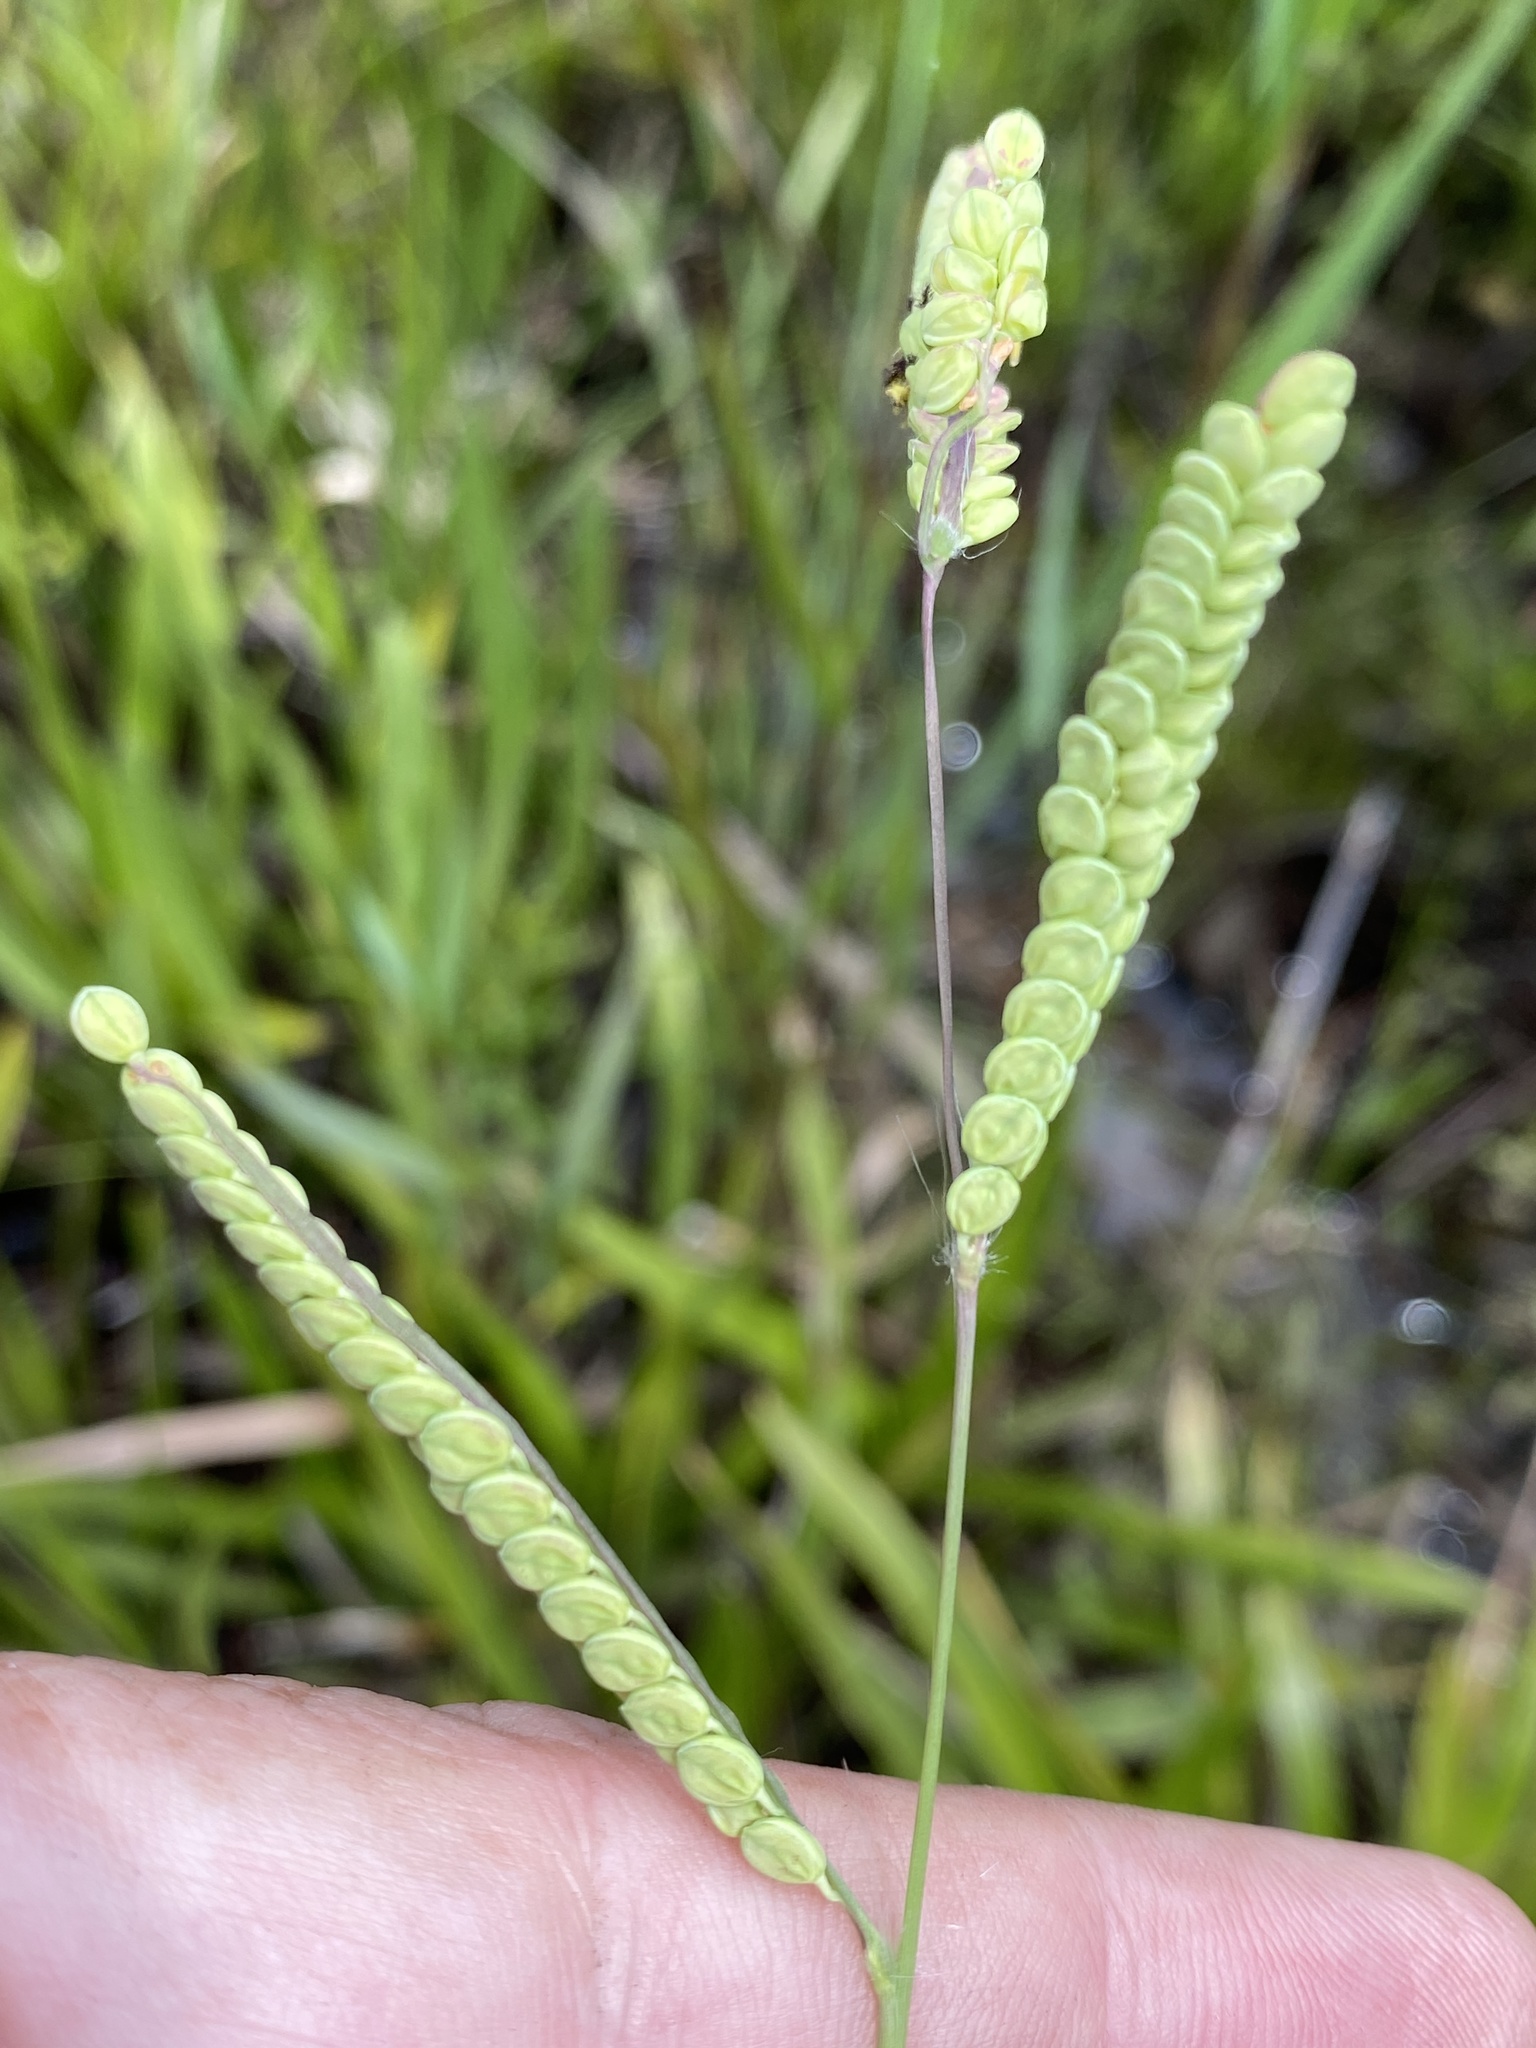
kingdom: Plantae
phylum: Tracheophyta
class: Liliopsida
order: Poales
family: Poaceae
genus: Paspalum
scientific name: Paspalum praecox
